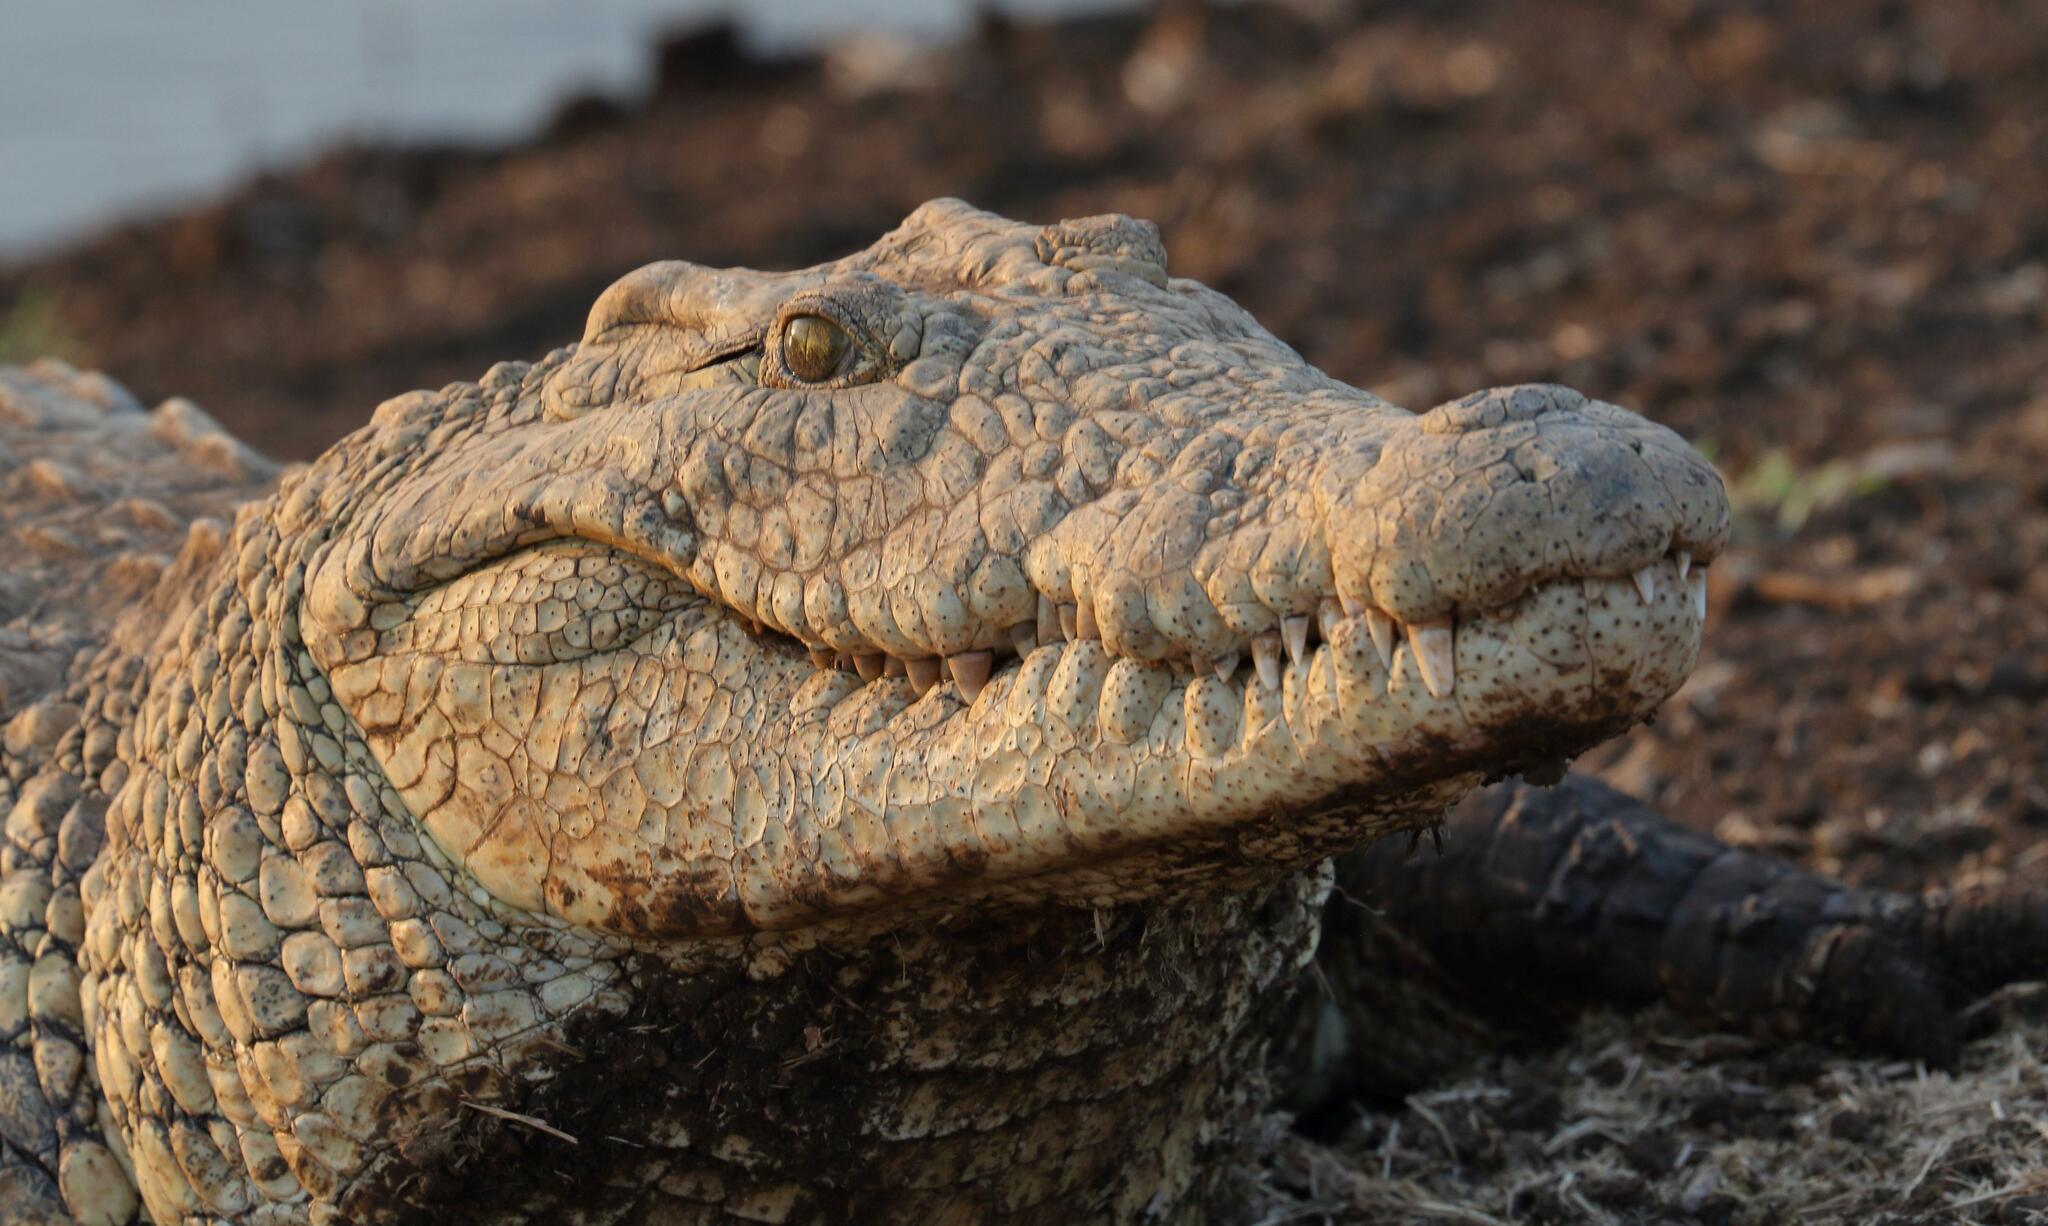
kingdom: Animalia
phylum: Chordata
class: Crocodylia
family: Crocodylidae
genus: Crocodylus
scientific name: Crocodylus niloticus
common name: Nile crocodile
